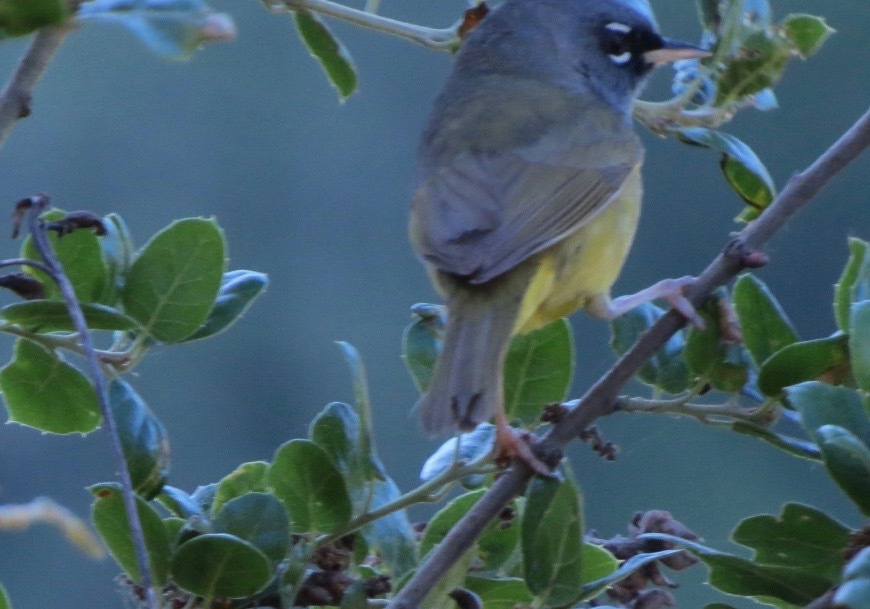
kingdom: Animalia
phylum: Chordata
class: Aves
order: Passeriformes
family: Parulidae
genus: Geothlypis
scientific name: Geothlypis tolmiei
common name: Macgillivray's warbler
